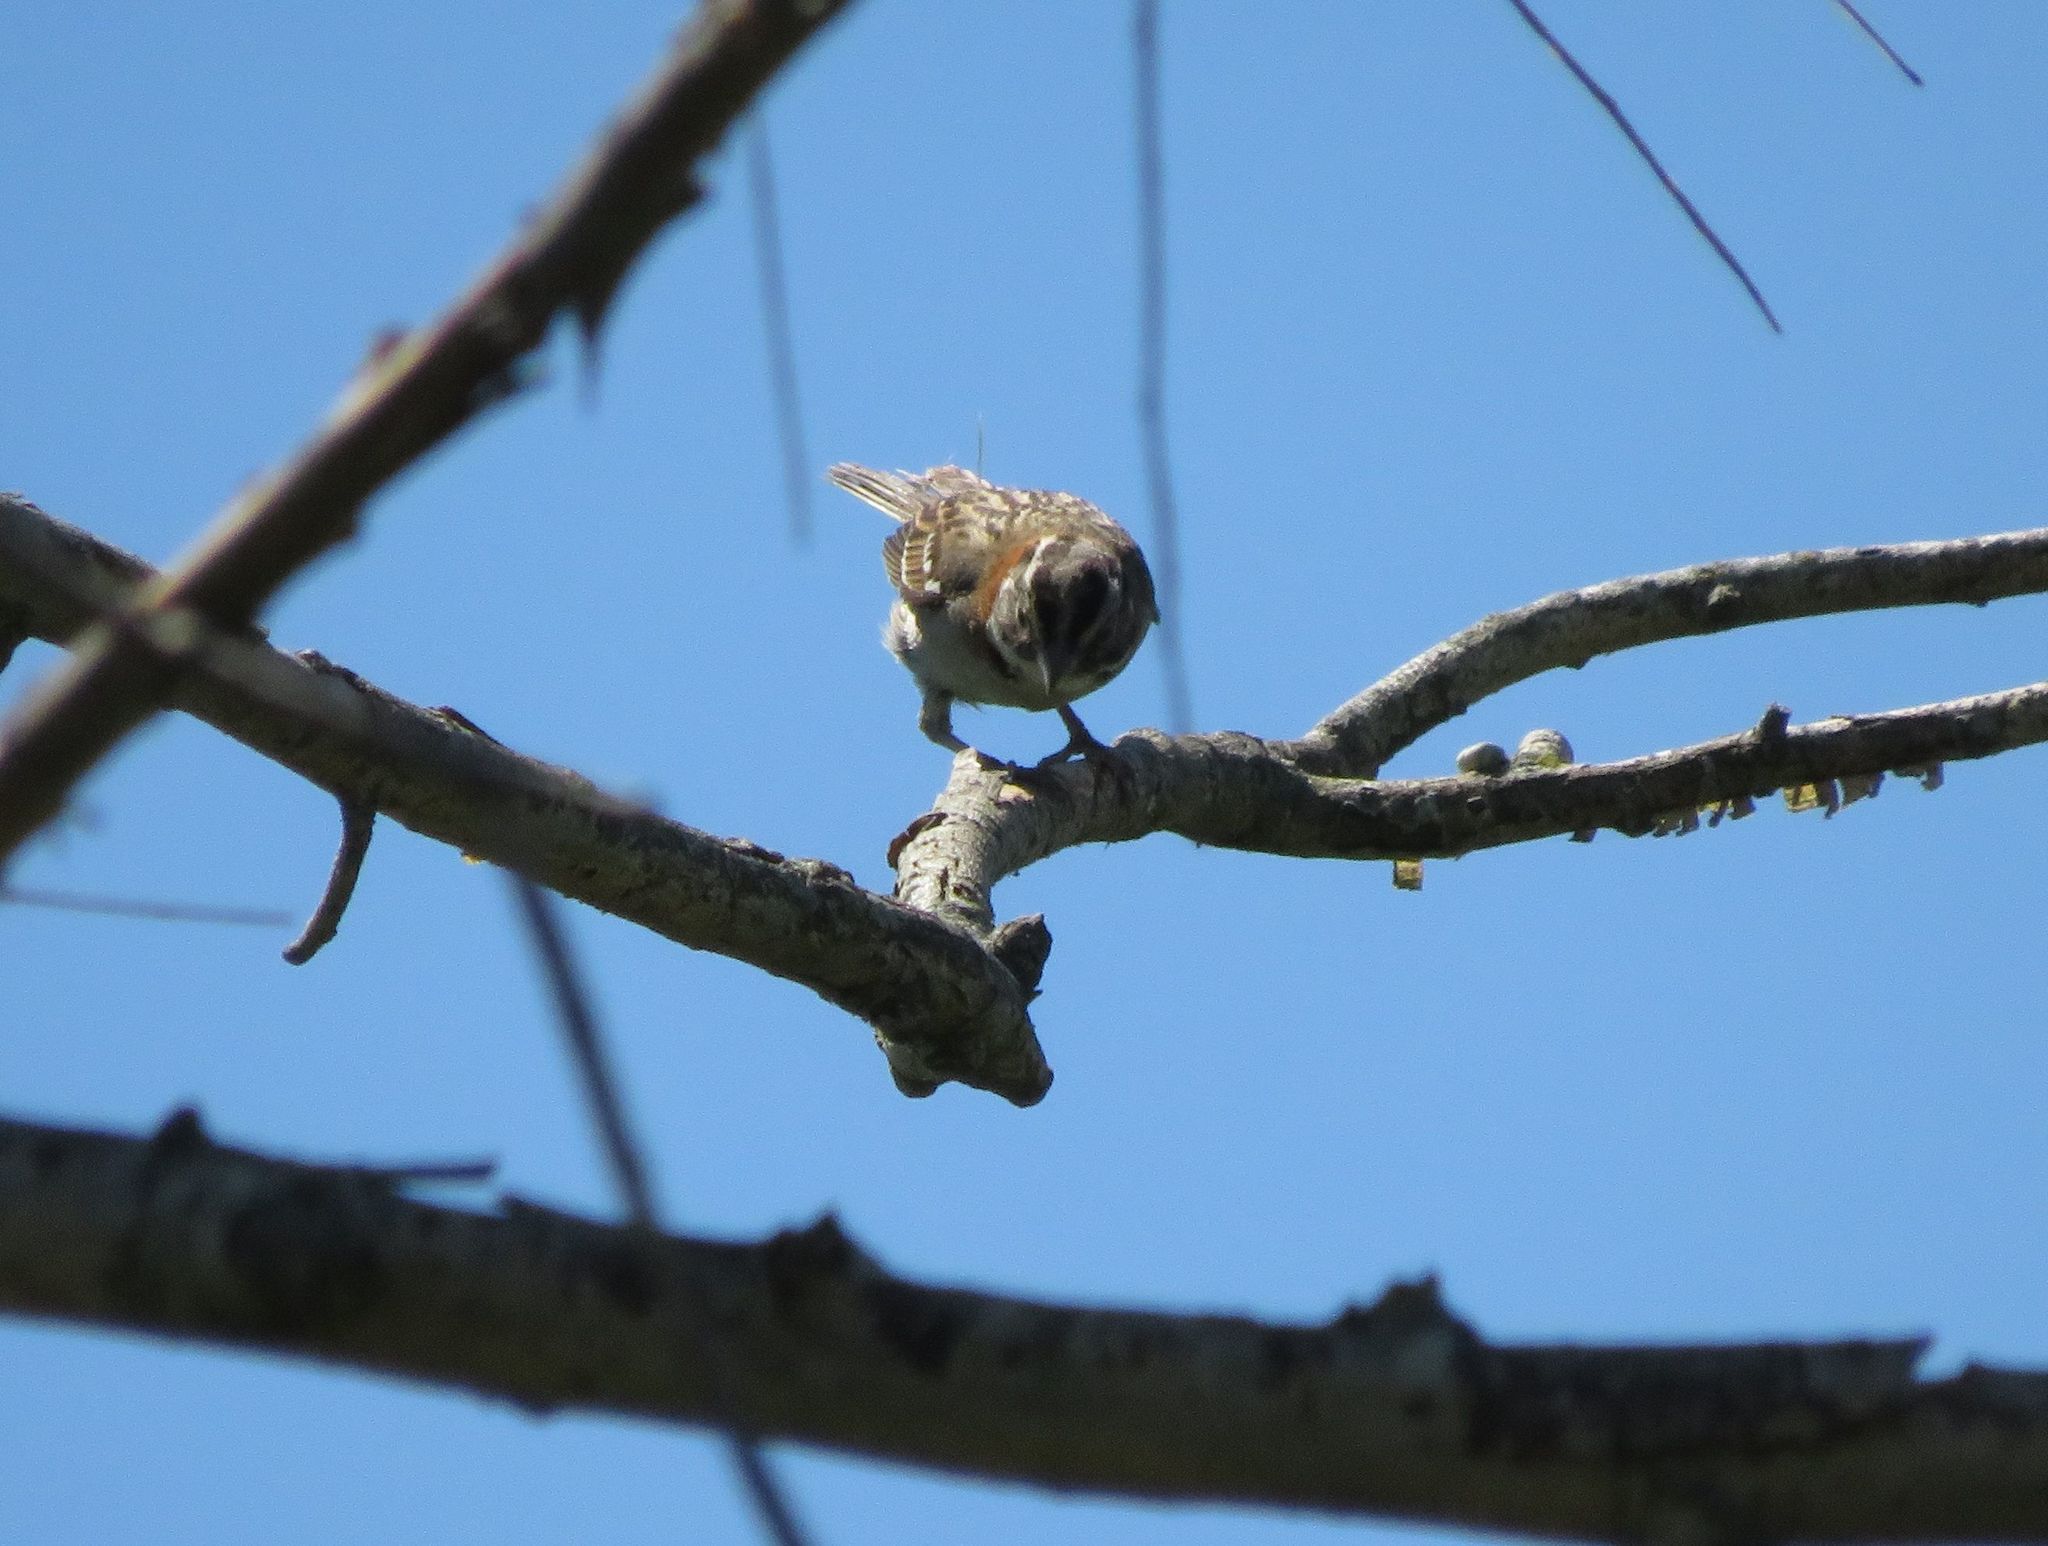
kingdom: Animalia
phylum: Chordata
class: Aves
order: Passeriformes
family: Passerellidae
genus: Zonotrichia
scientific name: Zonotrichia capensis
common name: Rufous-collared sparrow
